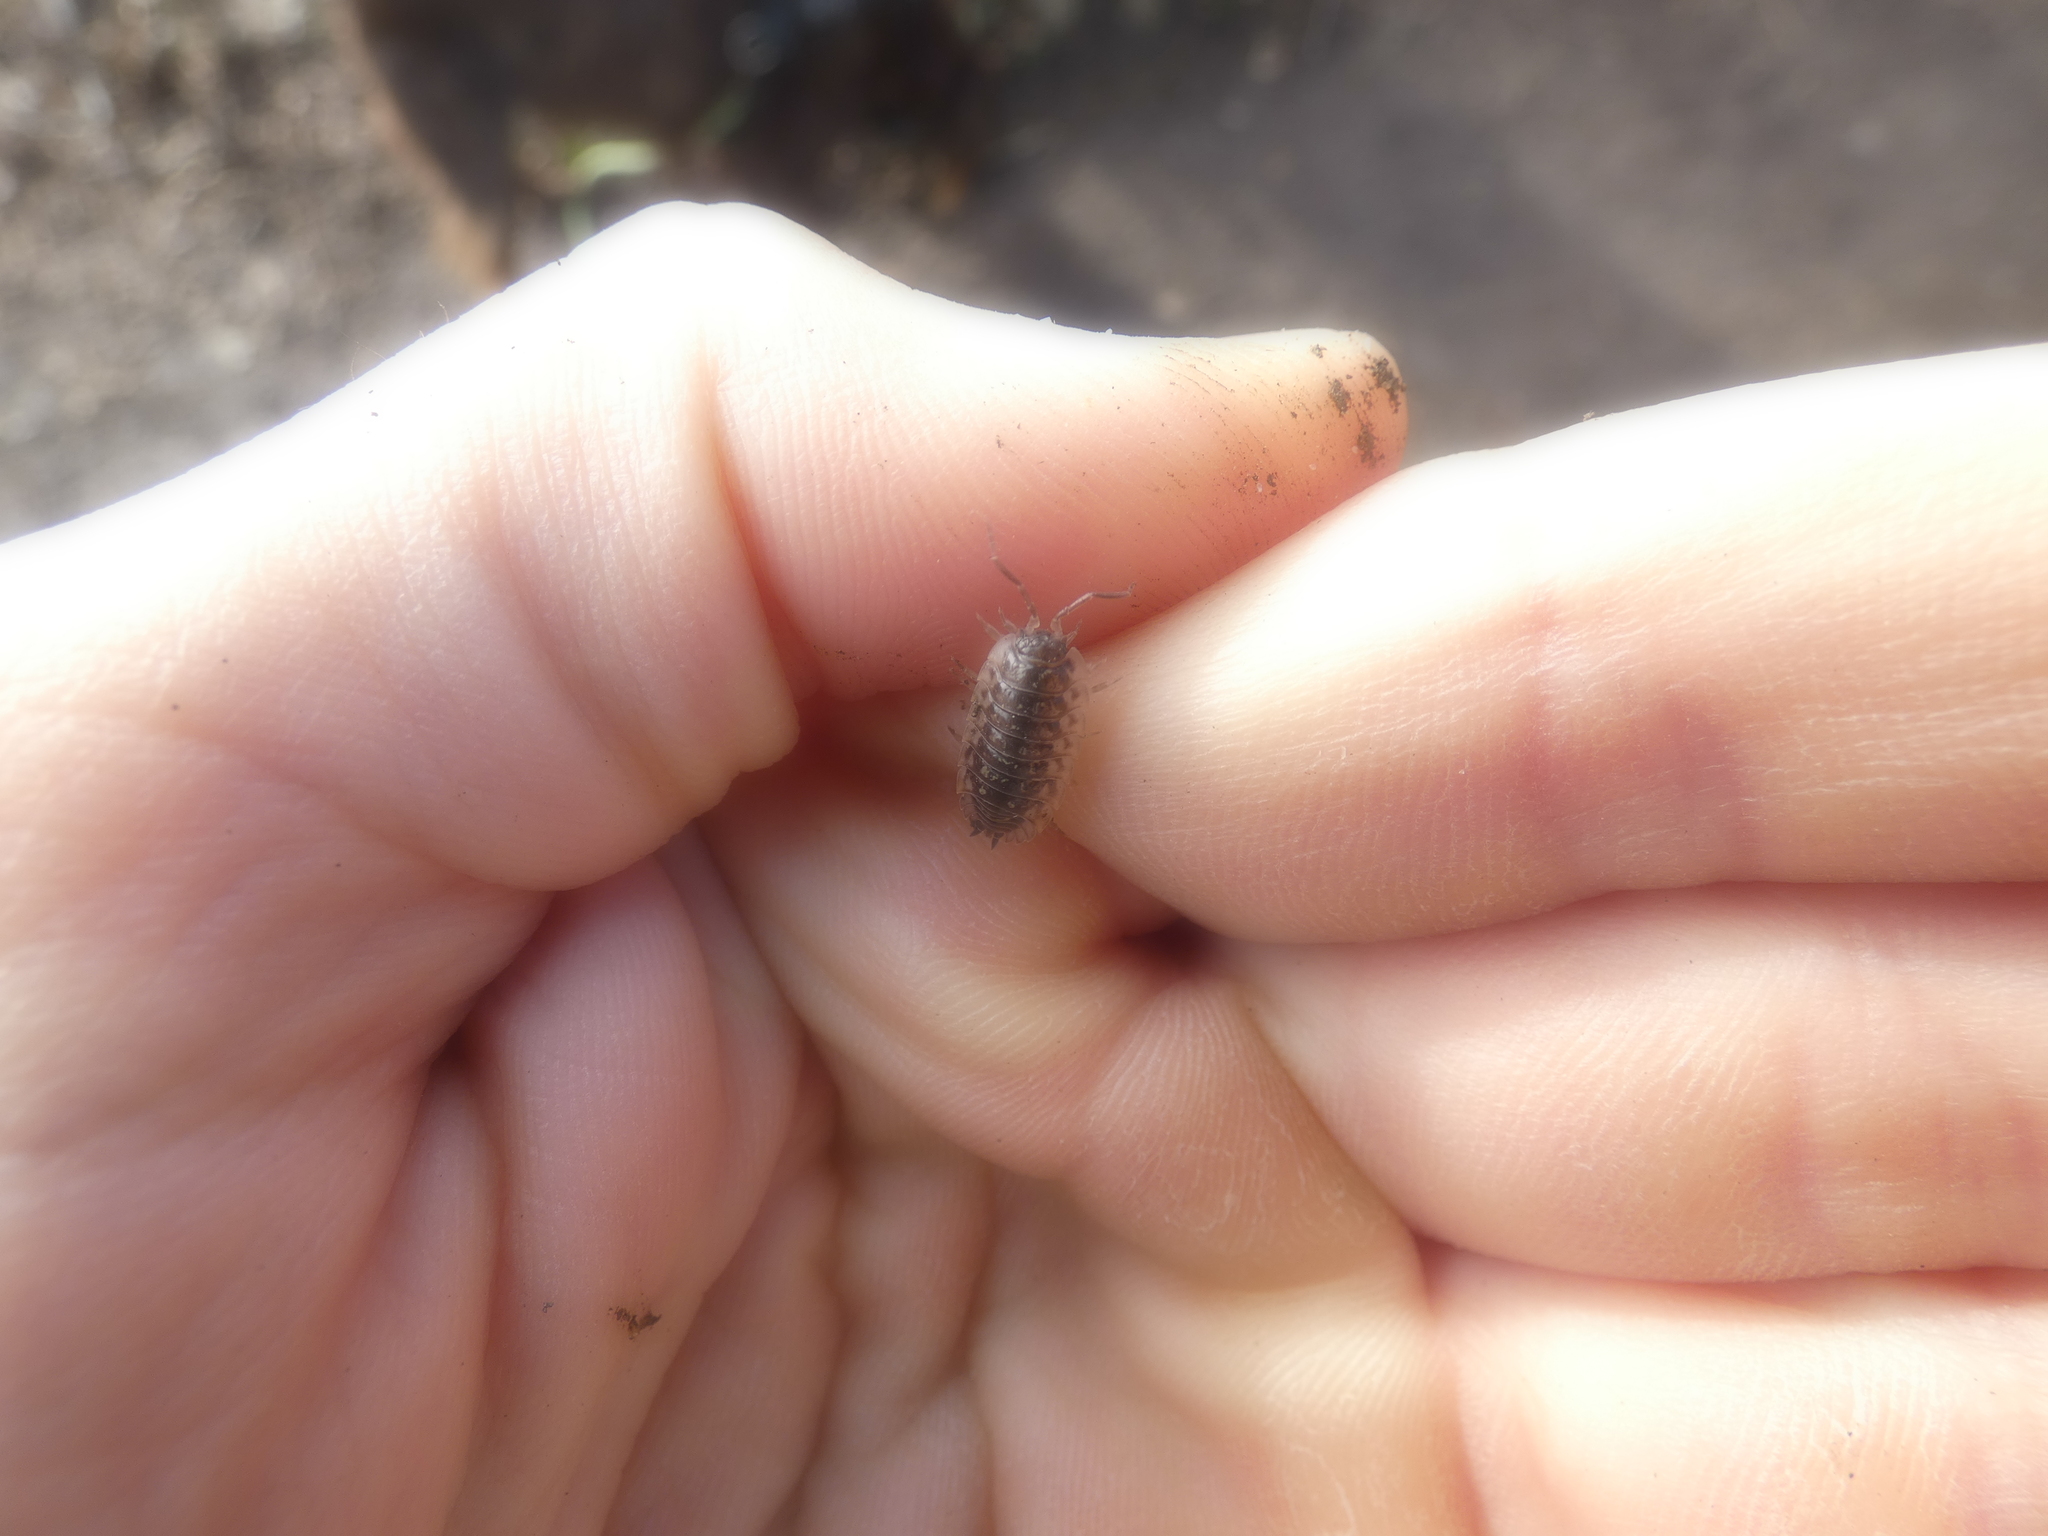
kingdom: Animalia
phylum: Arthropoda
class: Malacostraca
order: Isopoda
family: Oniscidae
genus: Oniscus
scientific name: Oniscus asellus
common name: Common shiny woodlouse
